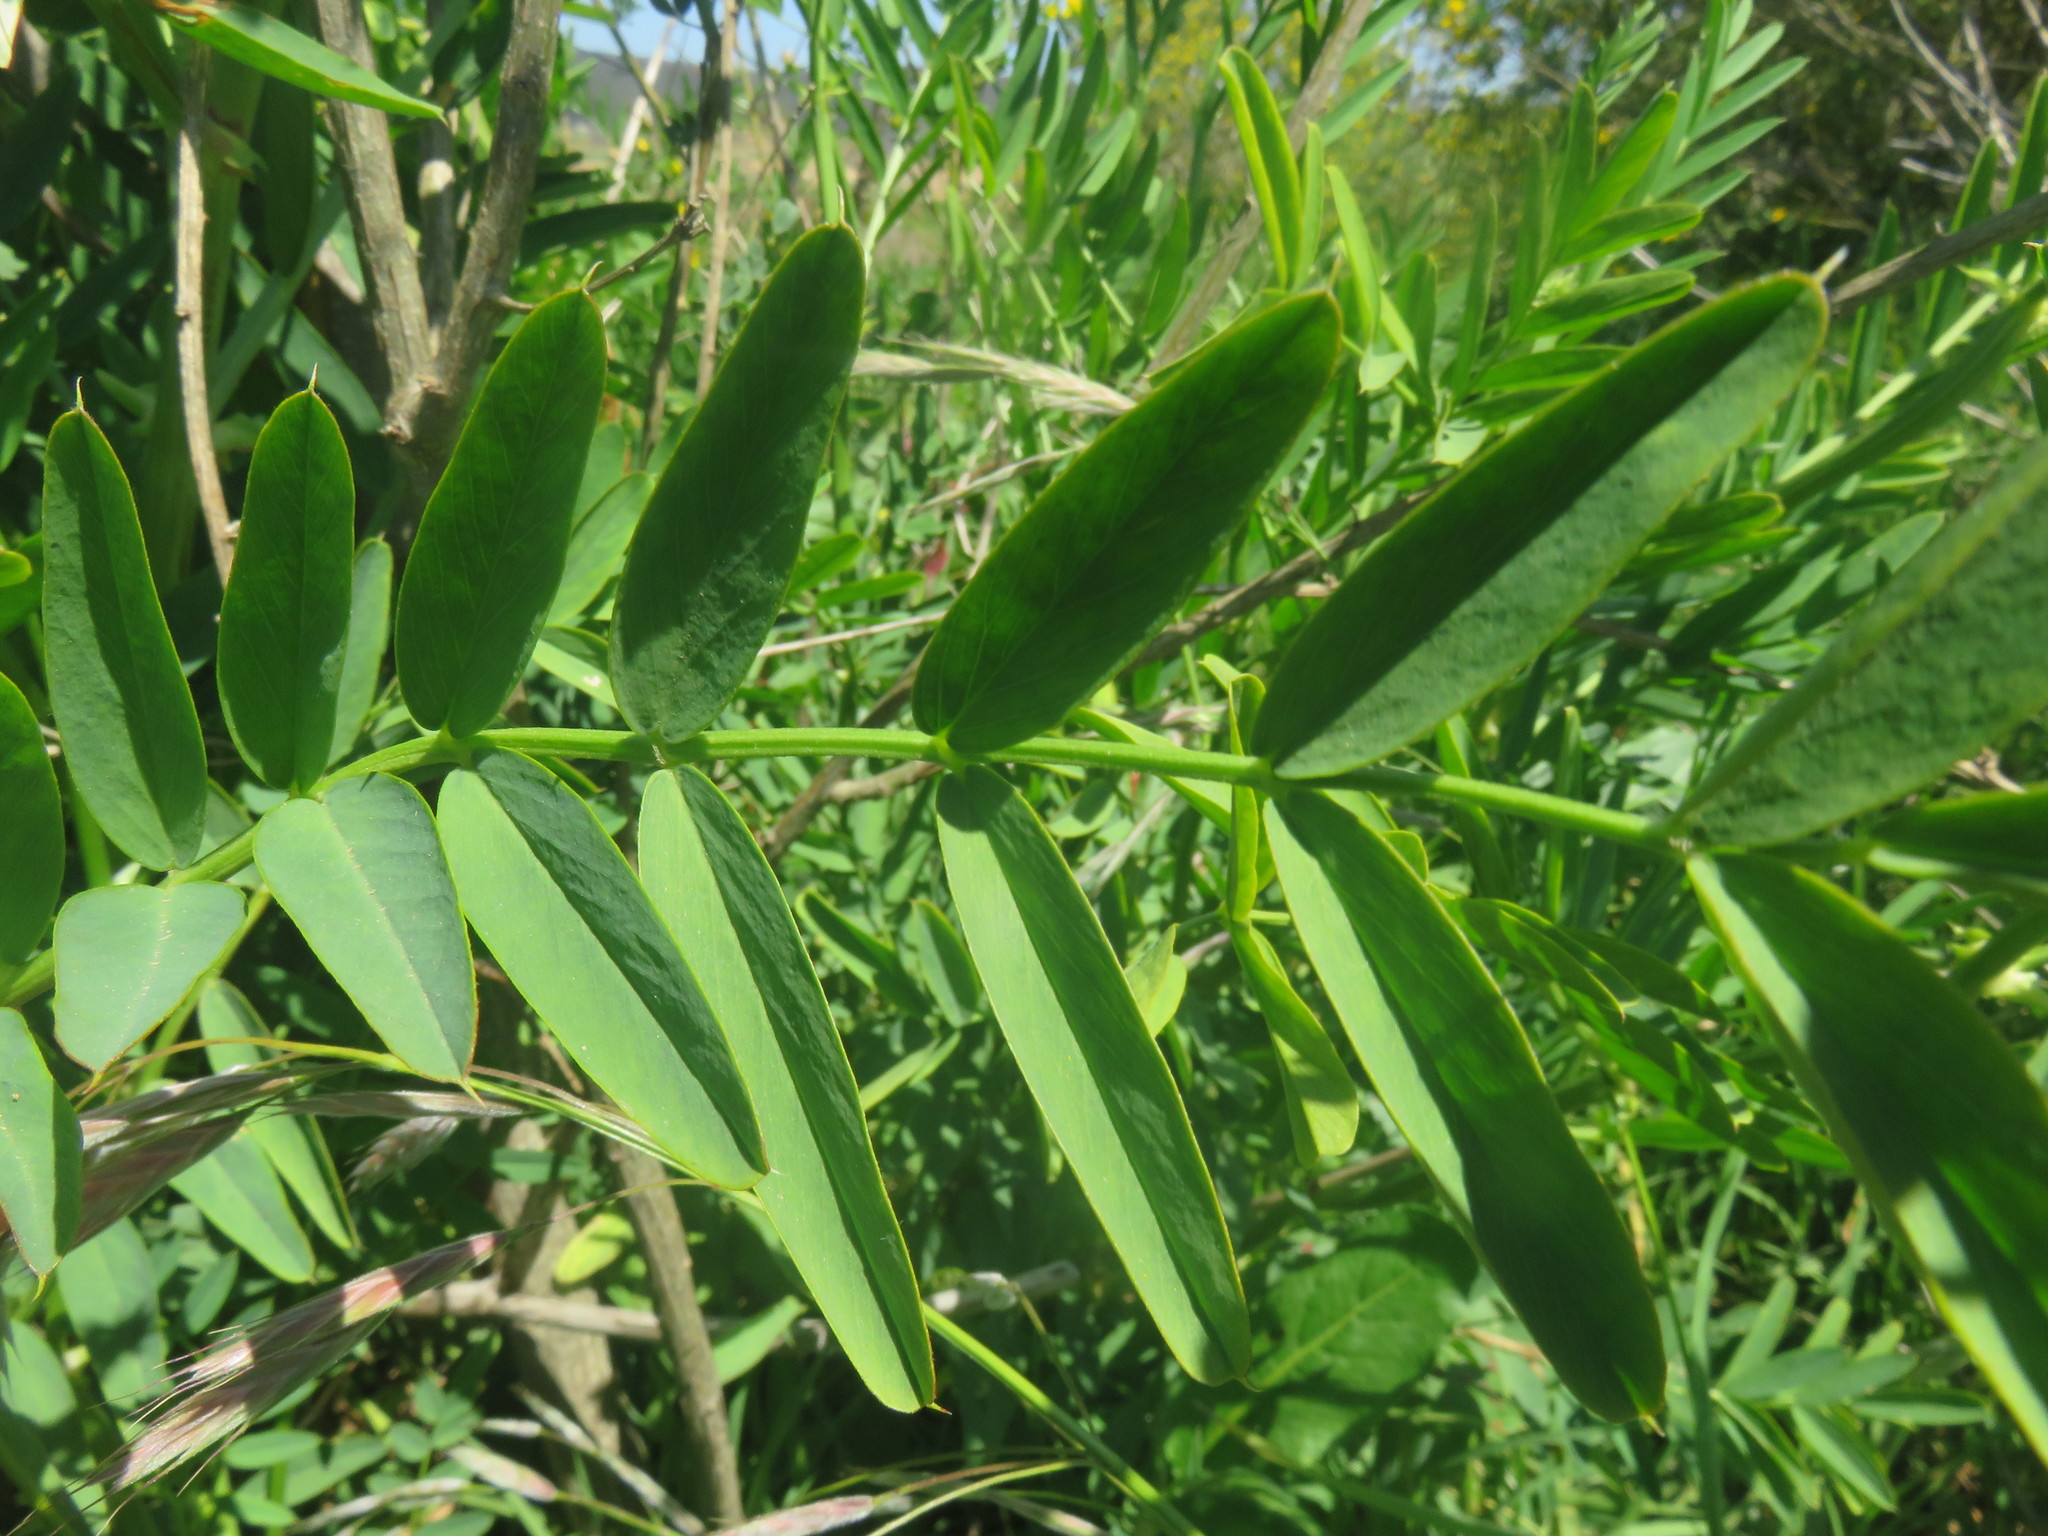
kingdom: Plantae
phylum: Tracheophyta
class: Magnoliopsida
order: Fabales
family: Fabaceae
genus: Galega
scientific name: Galega officinalis
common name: Goat's-rue
